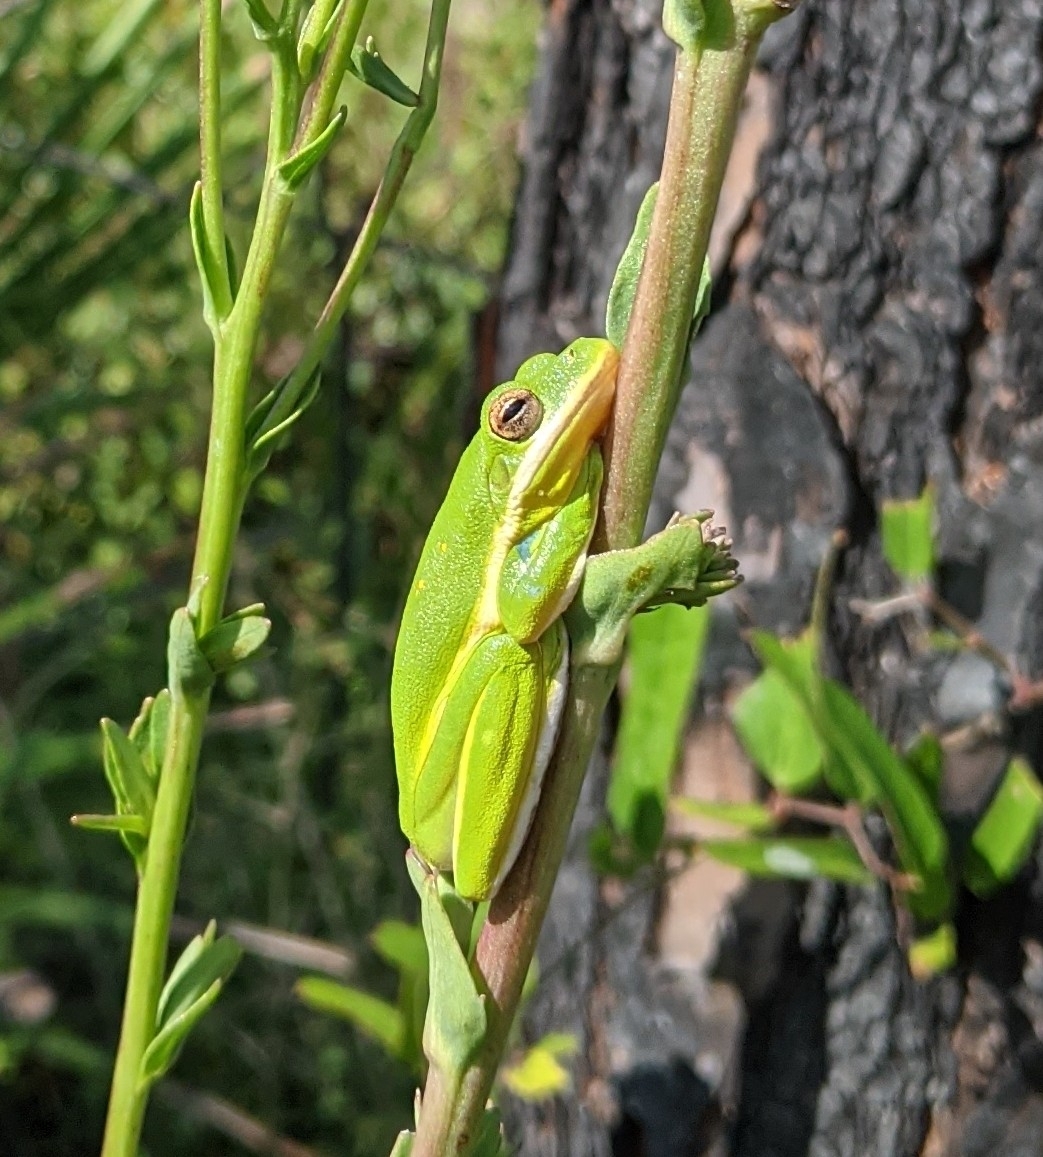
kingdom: Animalia
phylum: Chordata
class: Amphibia
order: Anura
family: Hylidae
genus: Dryophytes
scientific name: Dryophytes cinereus
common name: Green treefrog
